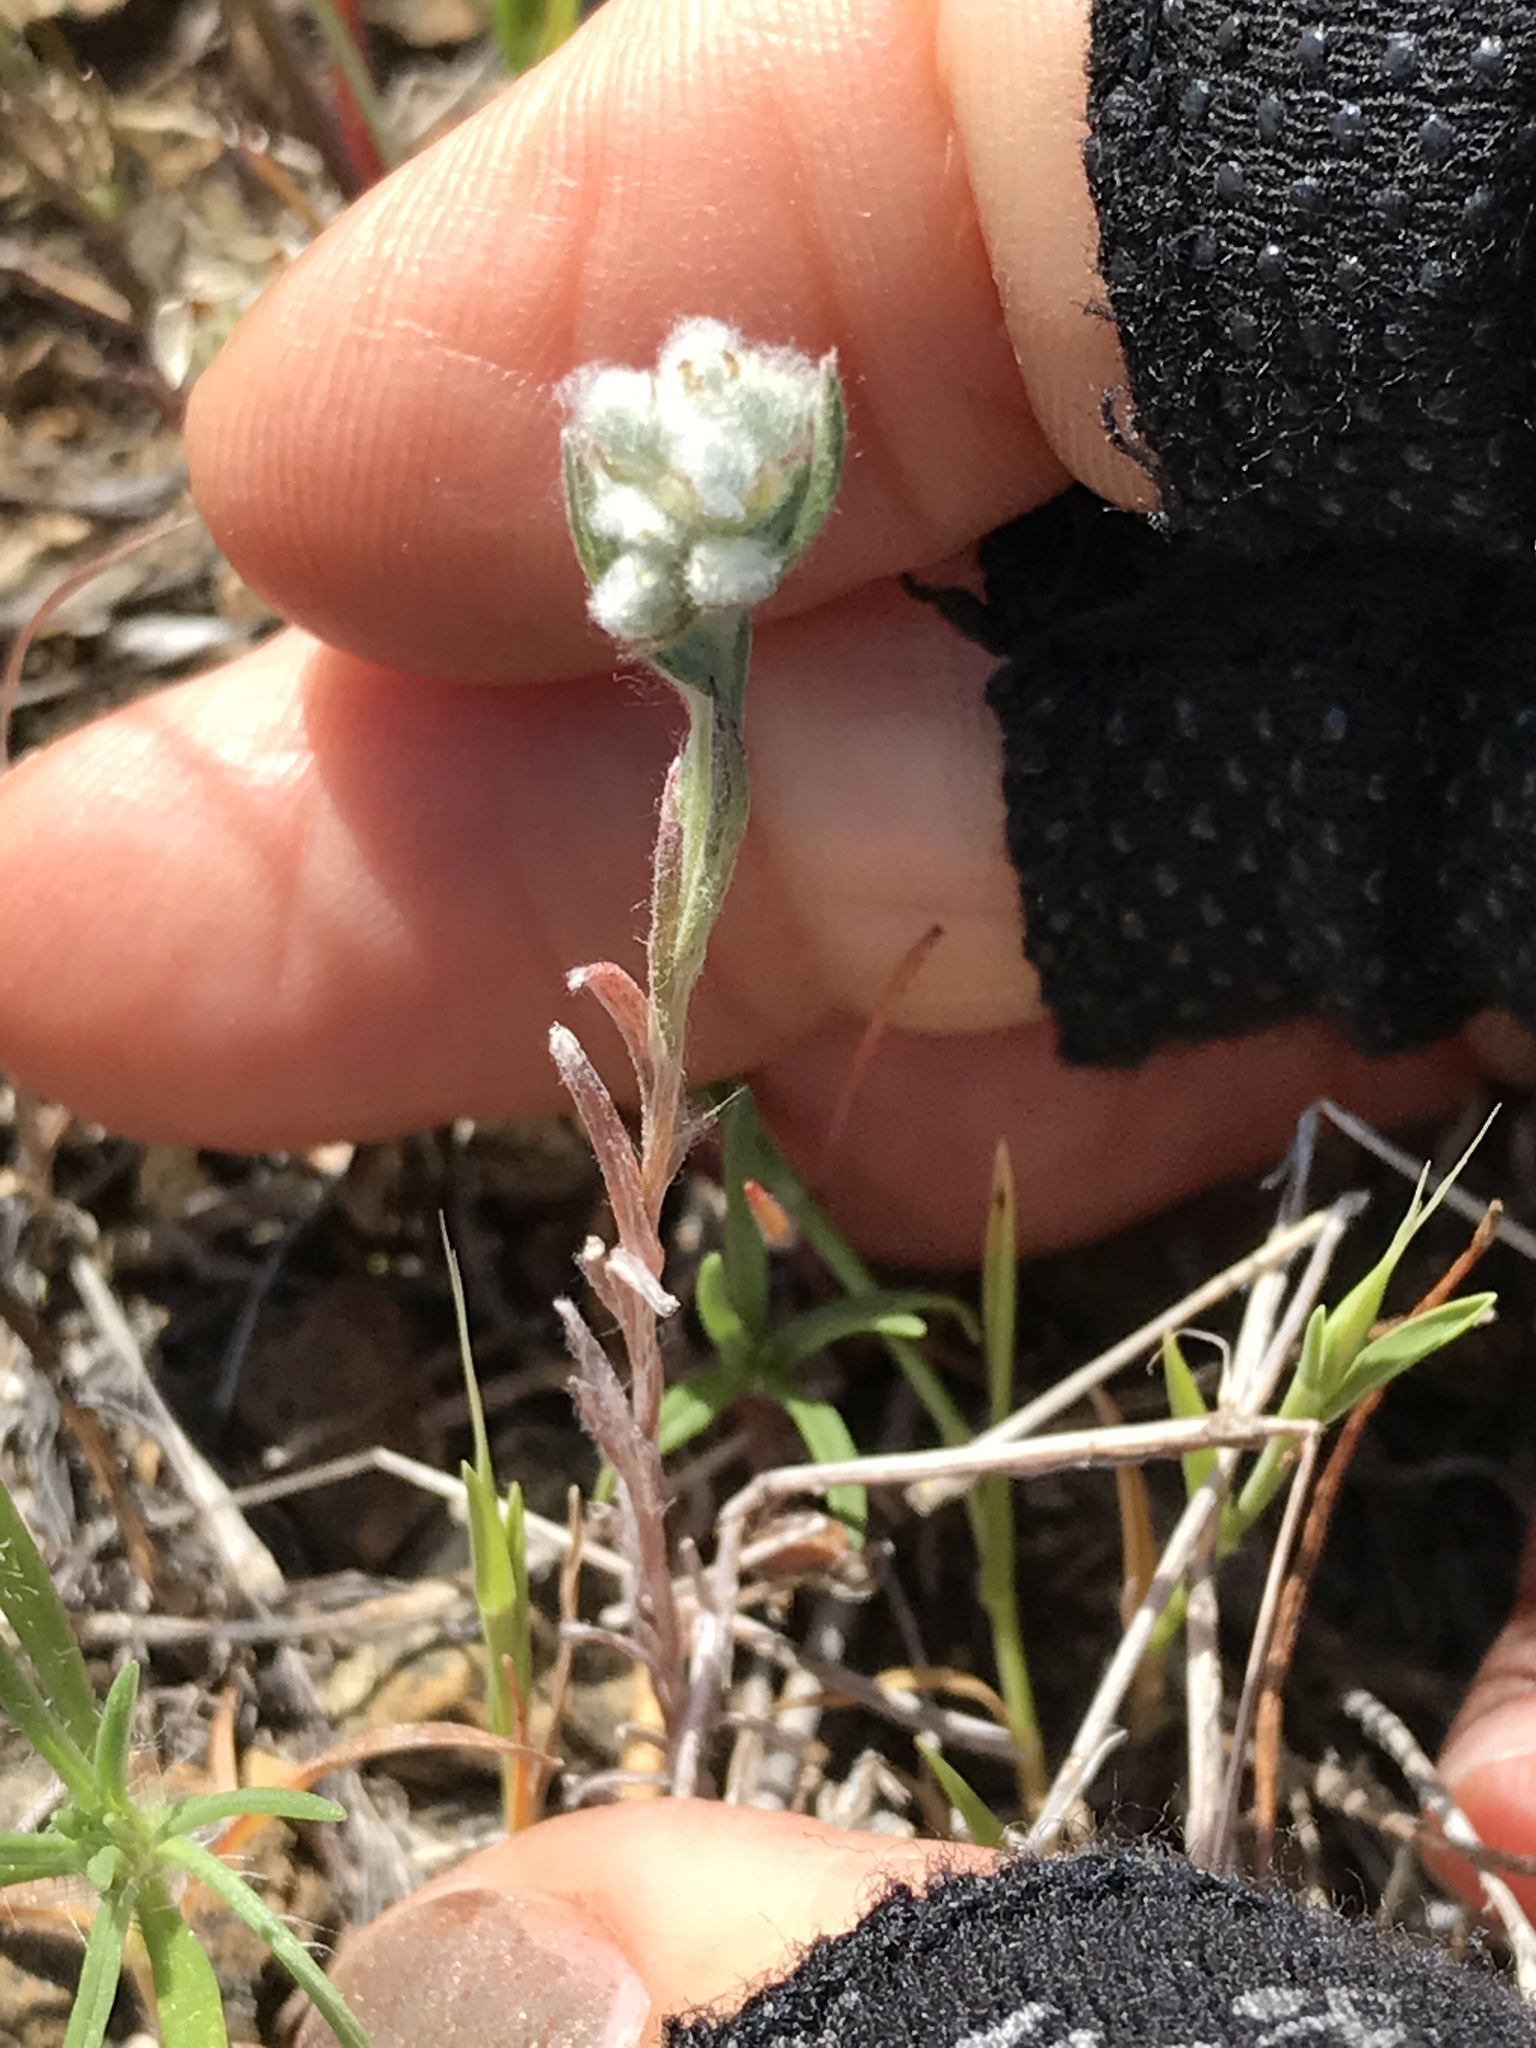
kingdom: Plantae
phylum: Tracheophyta
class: Magnoliopsida
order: Asterales
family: Asteraceae
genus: Bombycilaena
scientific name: Bombycilaena californica
